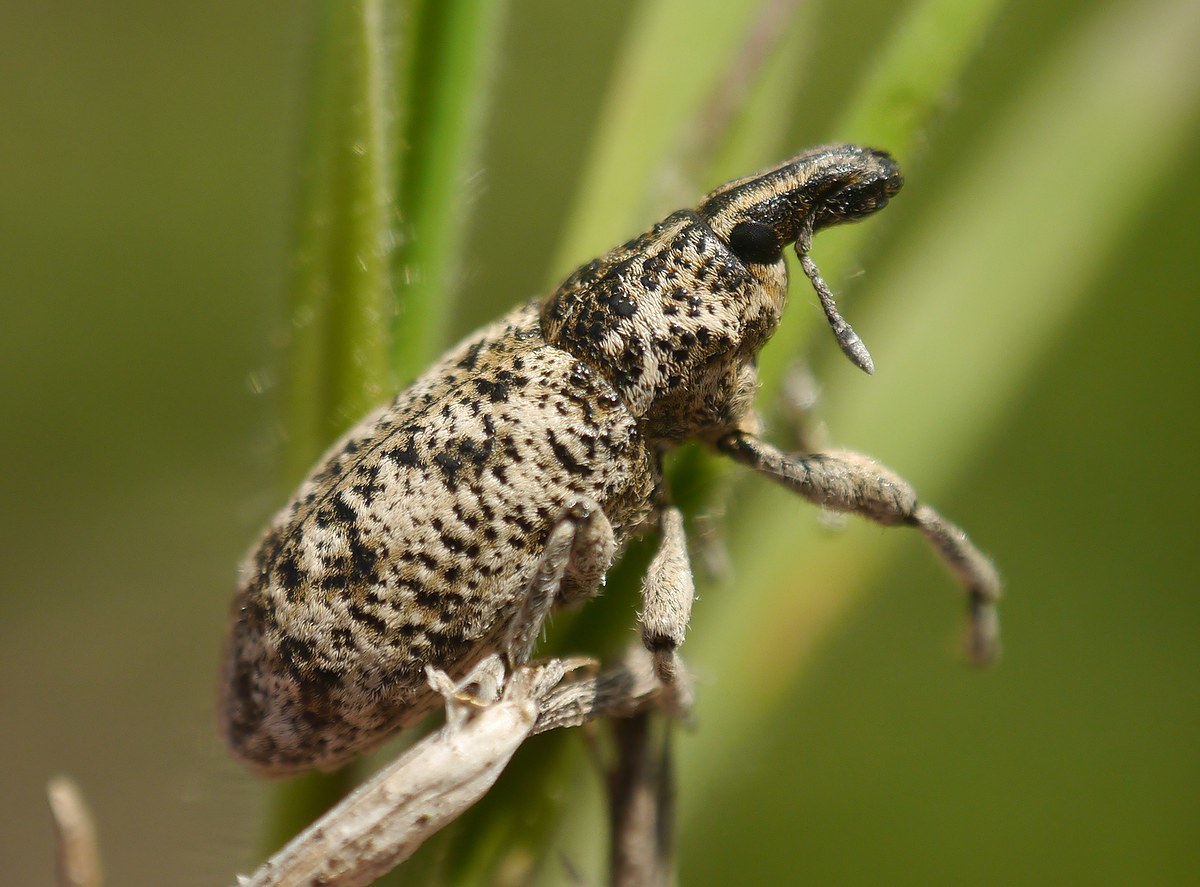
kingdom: Animalia
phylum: Arthropoda
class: Insecta
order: Coleoptera
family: Curculionidae
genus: Cyphocleonus
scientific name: Cyphocleonus dealbatus
